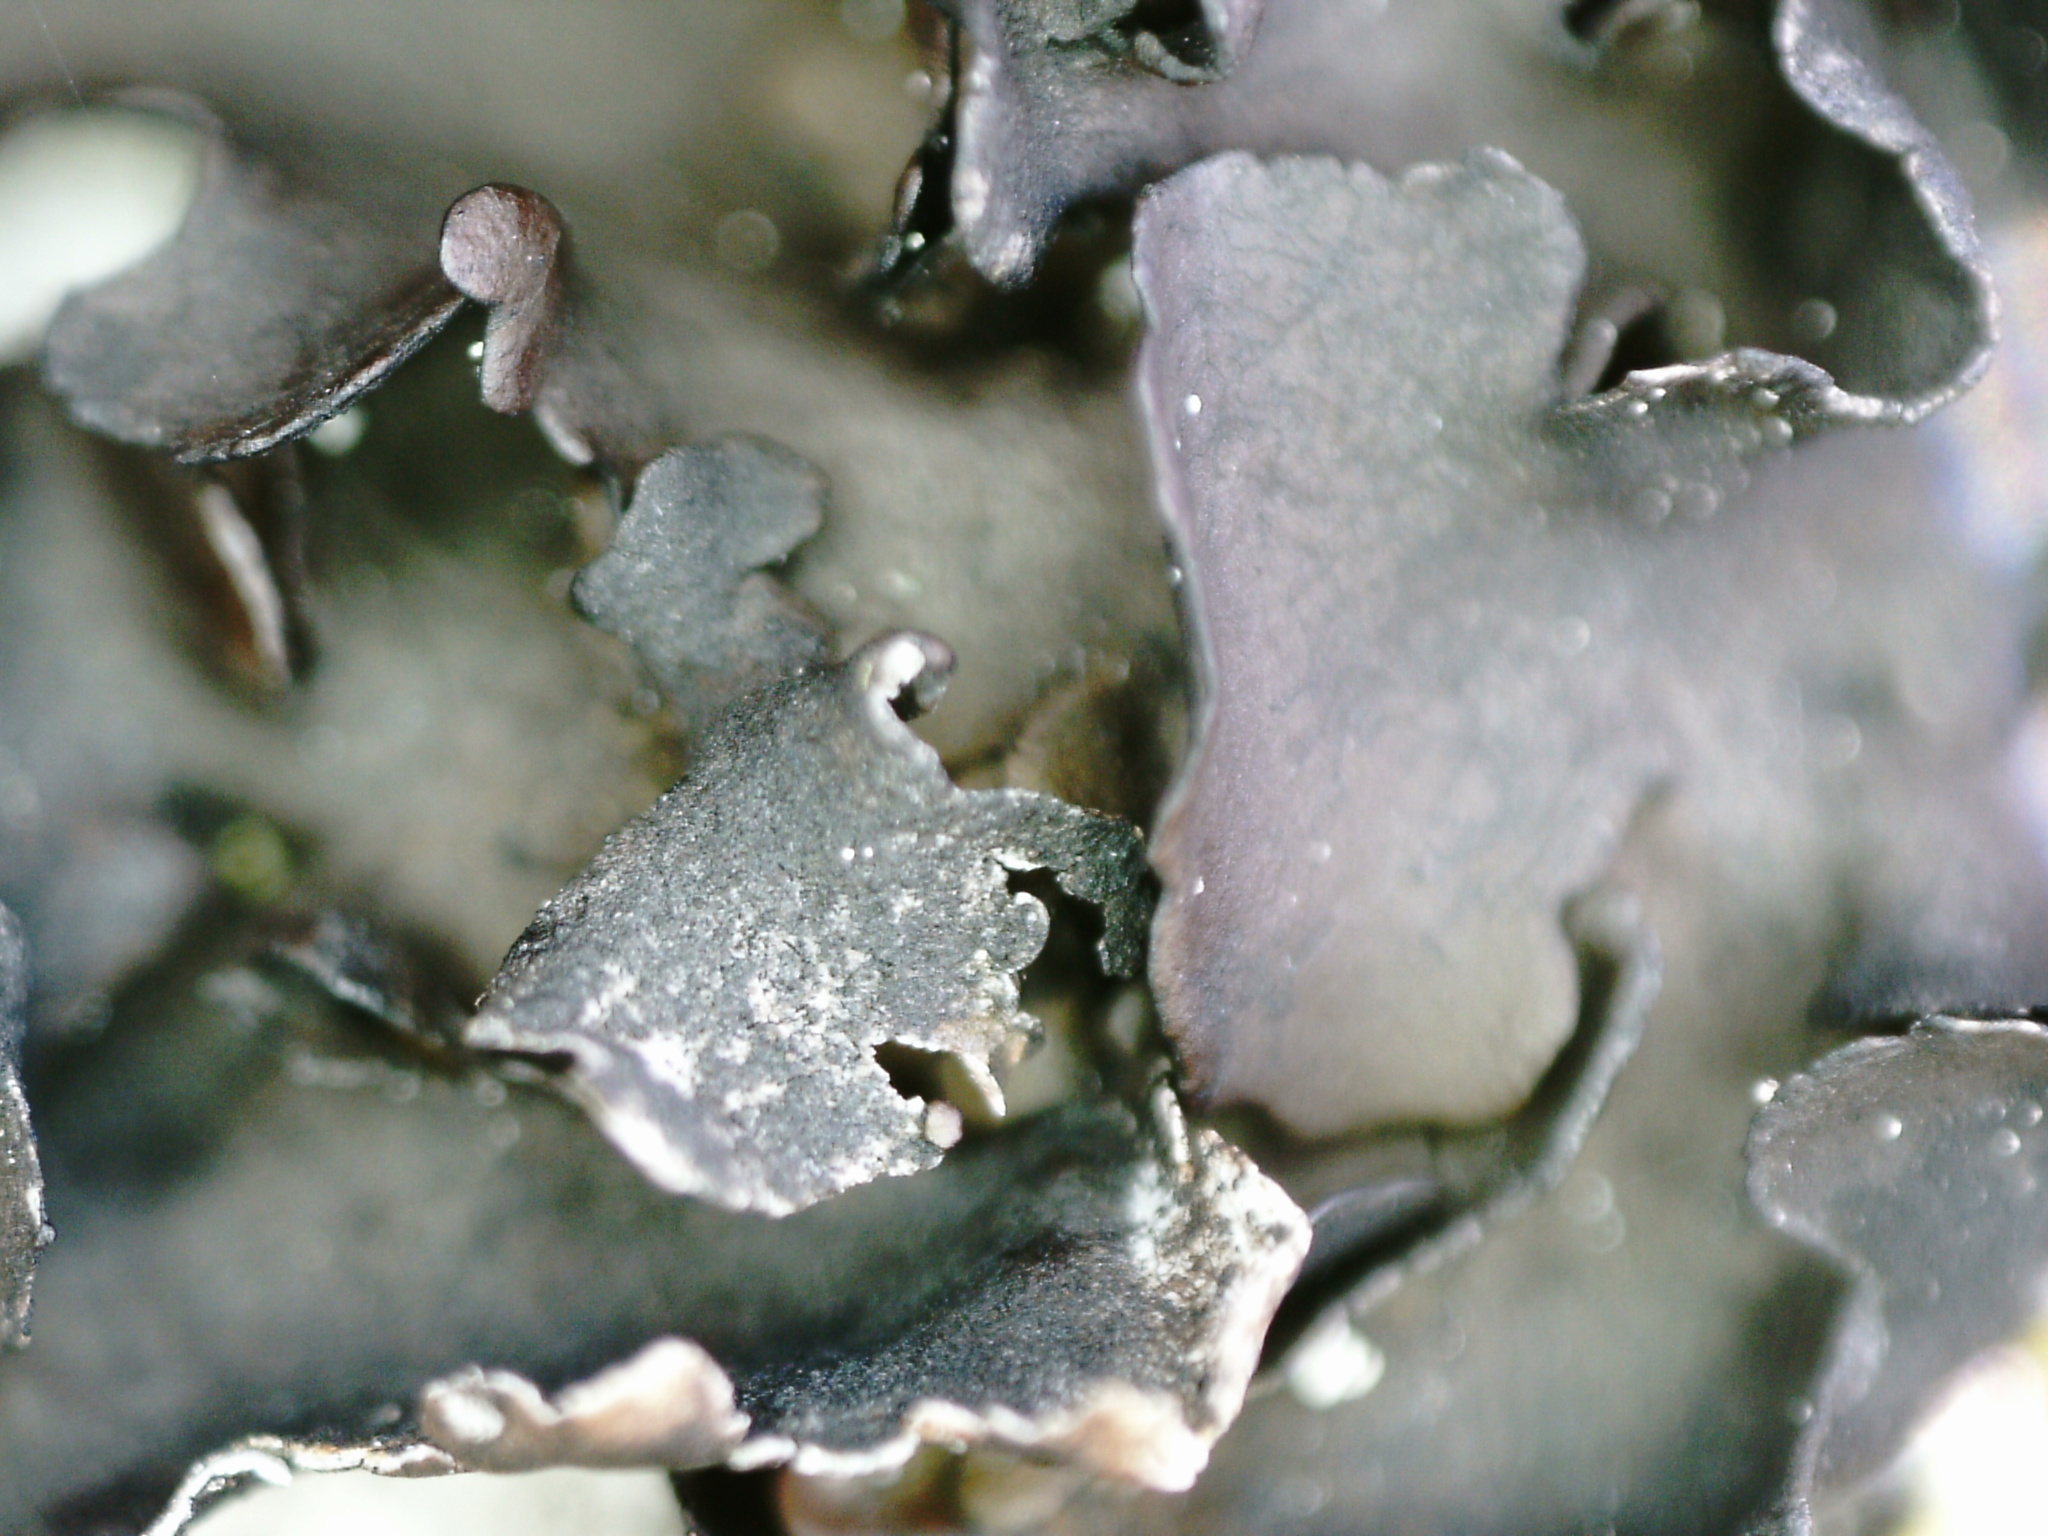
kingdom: Fungi
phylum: Ascomycota
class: Lecanoromycetes
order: Umbilicariales
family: Umbilicariaceae
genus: Umbilicaria
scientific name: Umbilicaria polyphylla
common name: Petalled rocktripe lichen
